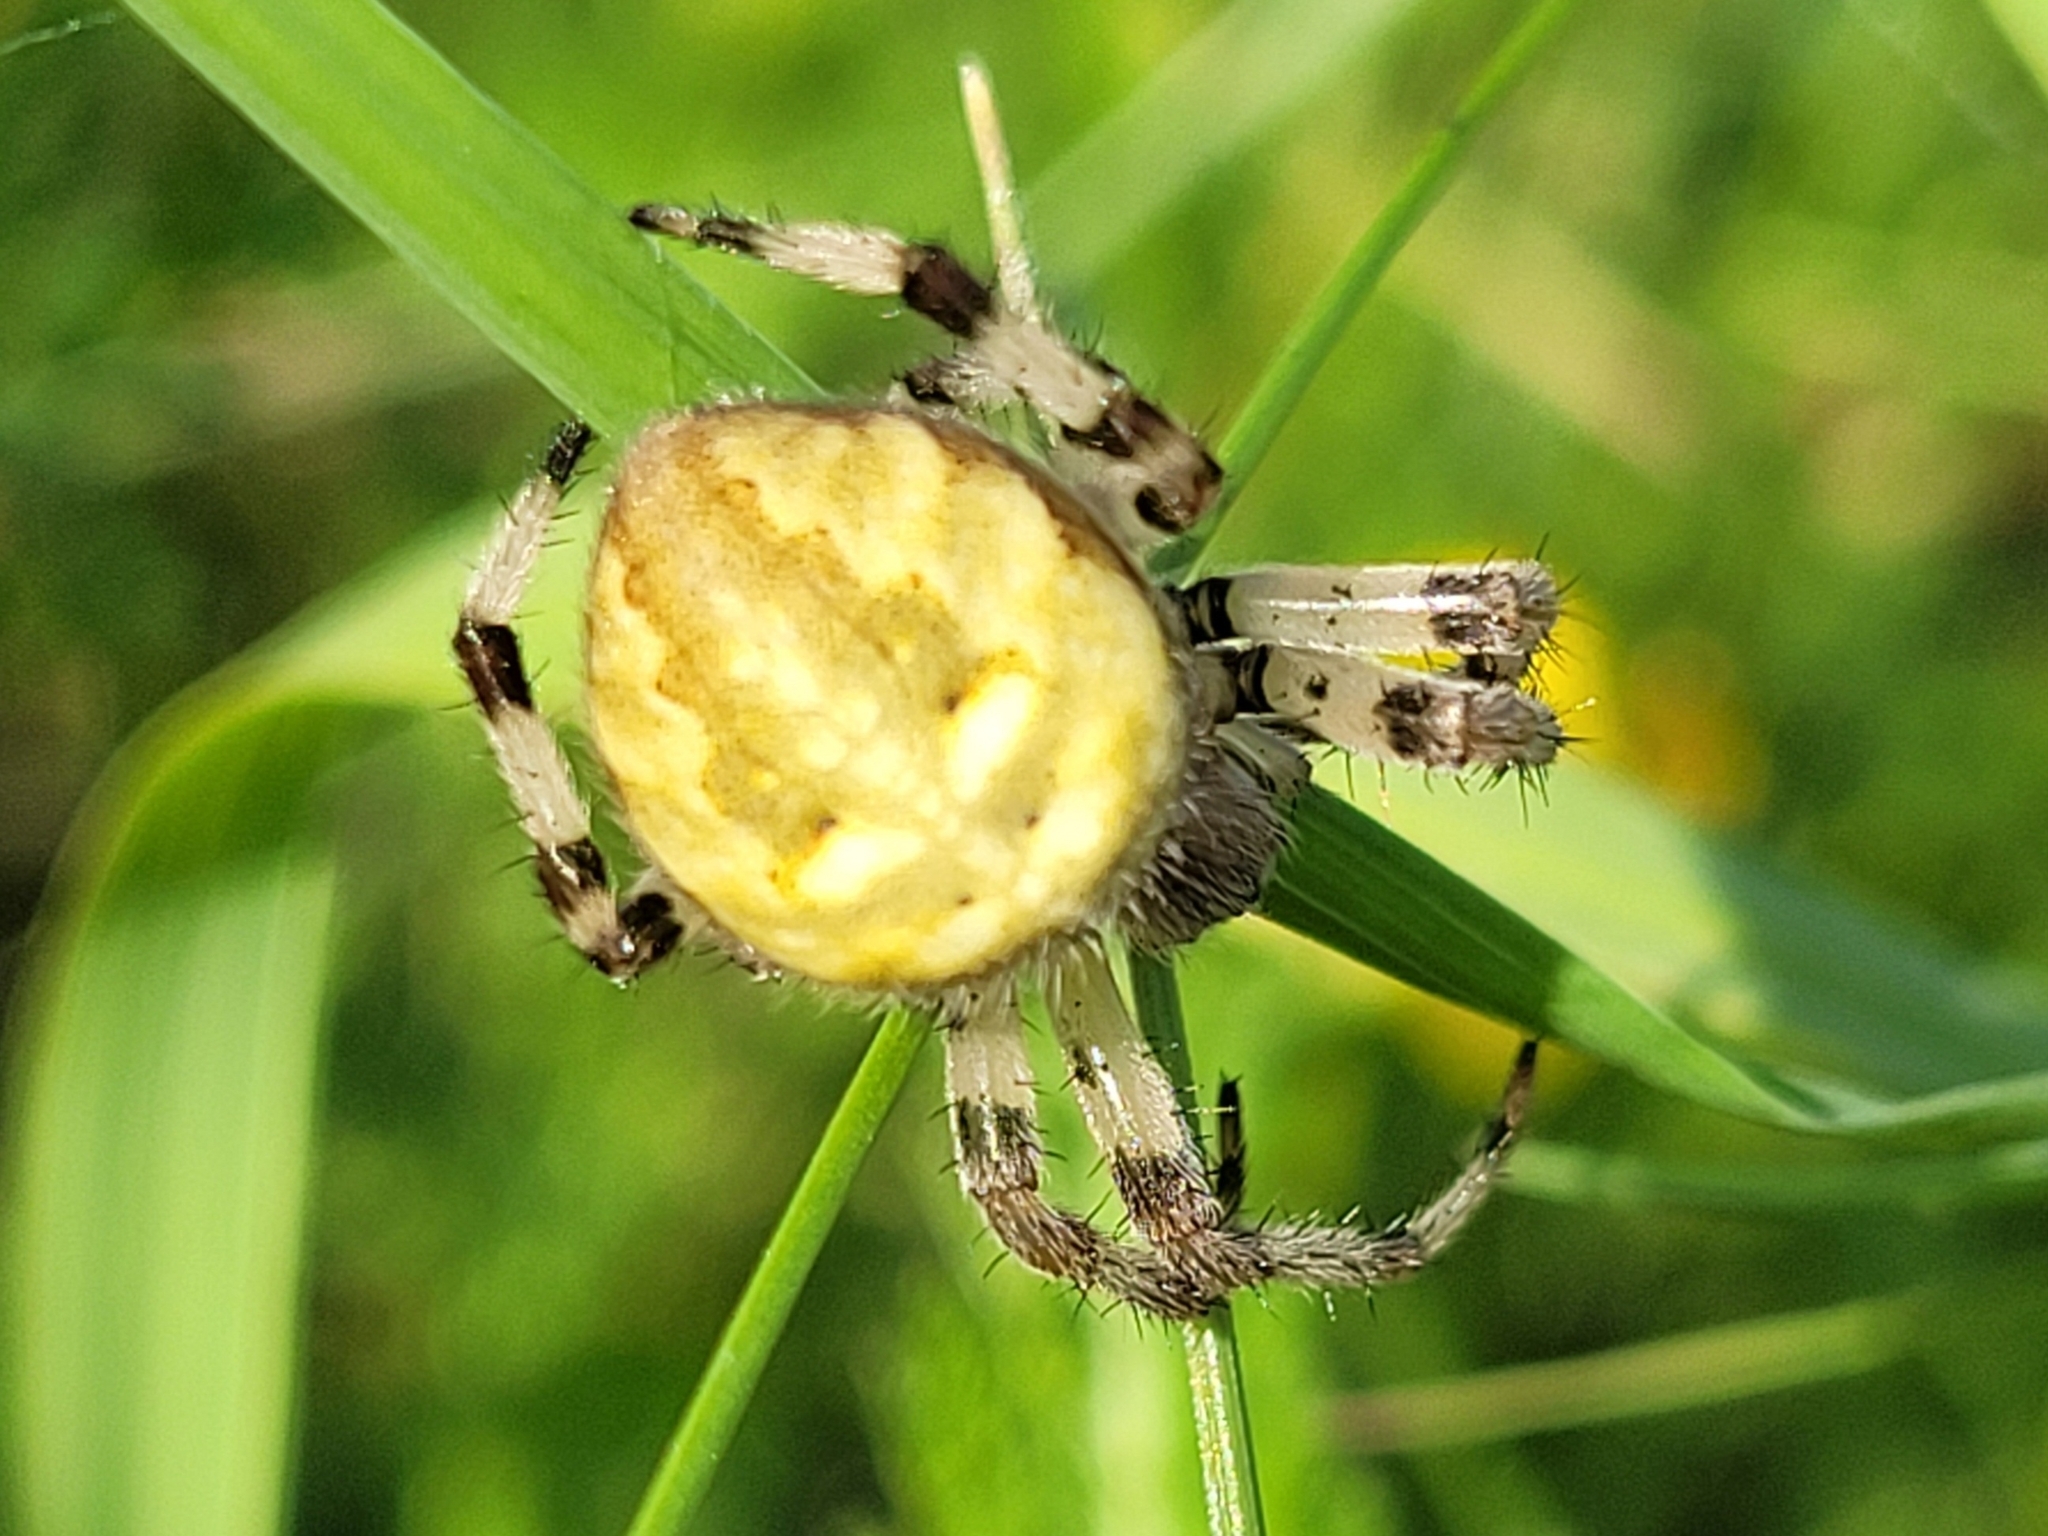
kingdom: Animalia
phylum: Arthropoda
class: Arachnida
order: Araneae
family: Araneidae
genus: Araneus
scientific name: Araneus quadratus
